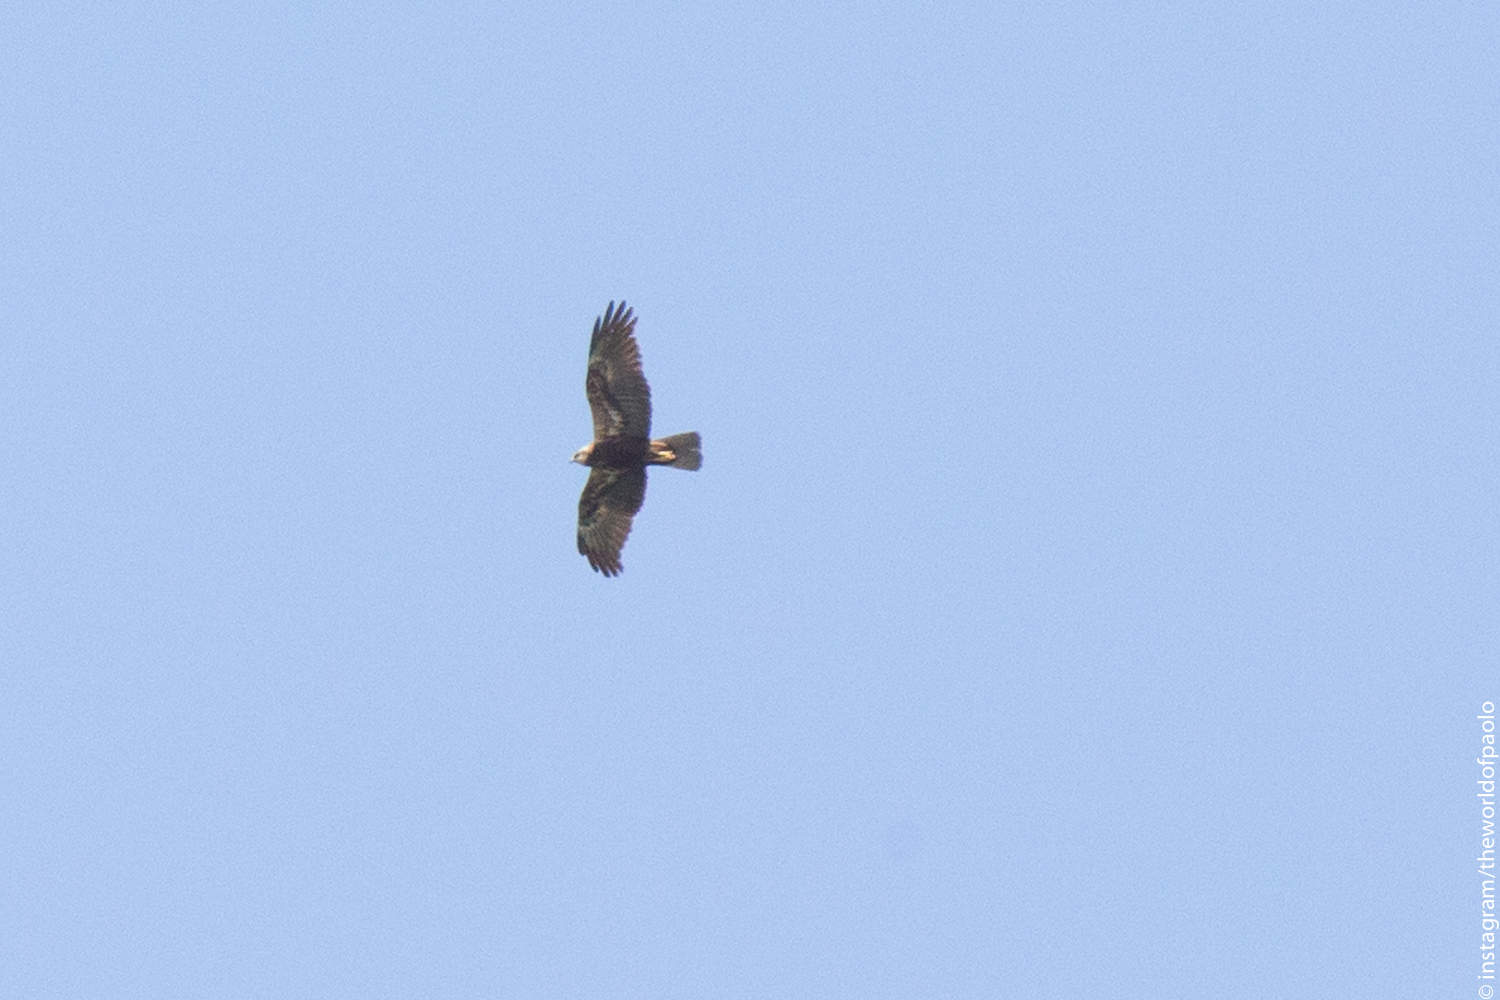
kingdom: Animalia
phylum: Chordata
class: Aves
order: Accipitriformes
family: Accipitridae
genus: Circus
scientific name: Circus aeruginosus
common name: Western marsh harrier
